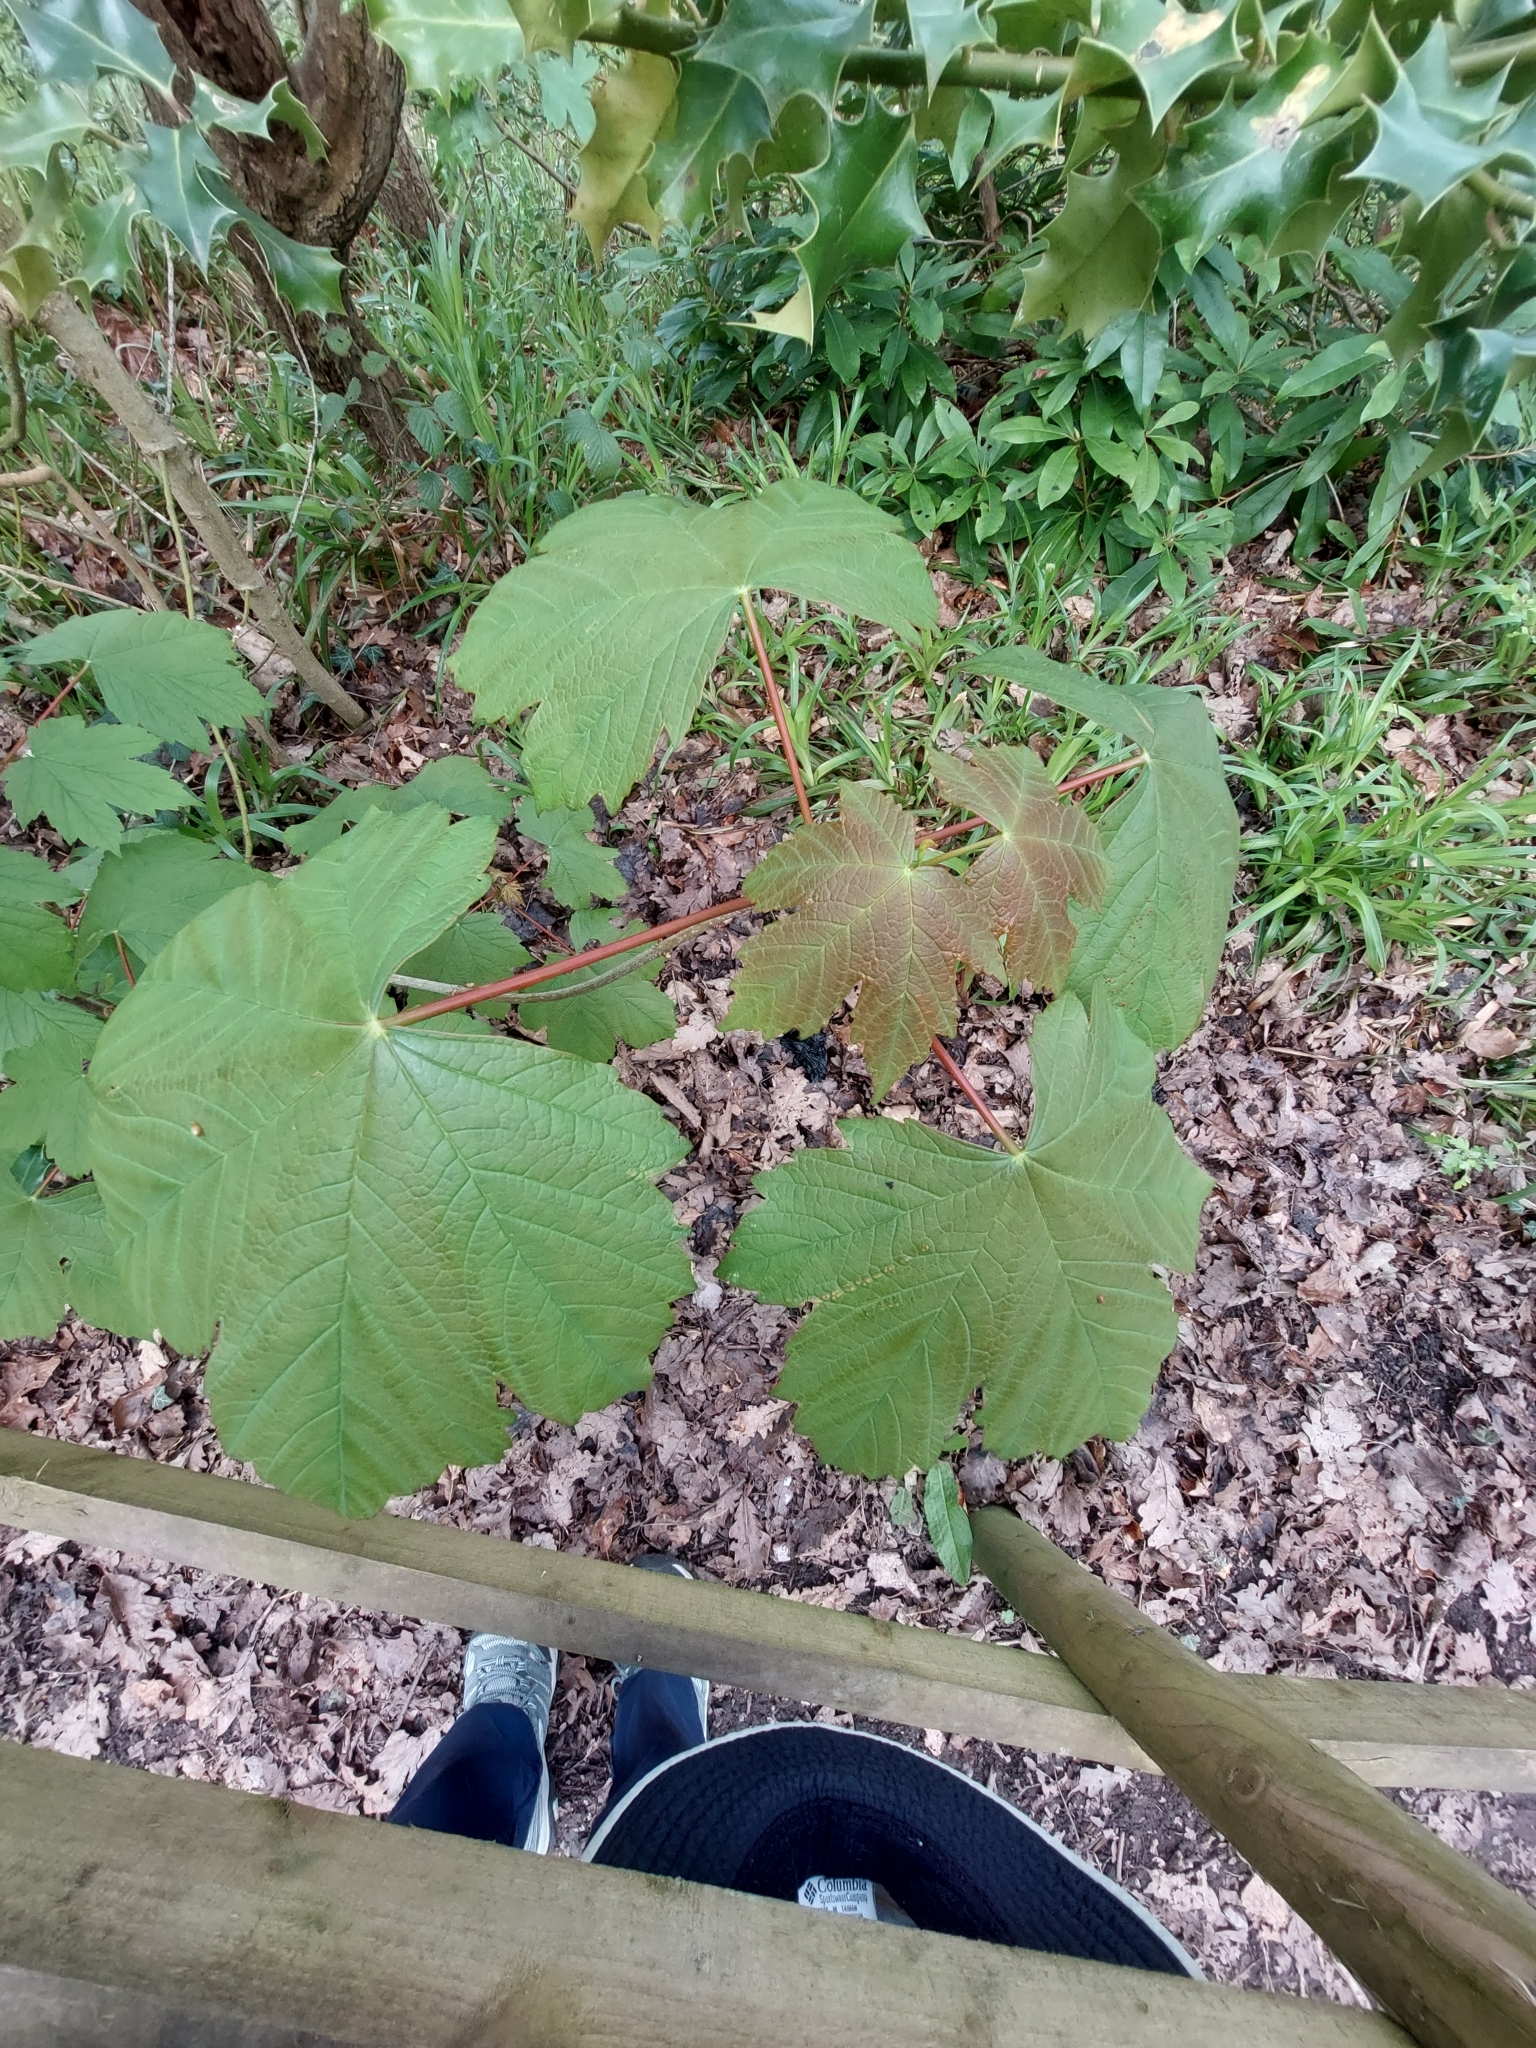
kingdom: Plantae
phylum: Tracheophyta
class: Magnoliopsida
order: Sapindales
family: Sapindaceae
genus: Acer
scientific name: Acer pseudoplatanus
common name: Sycamore
